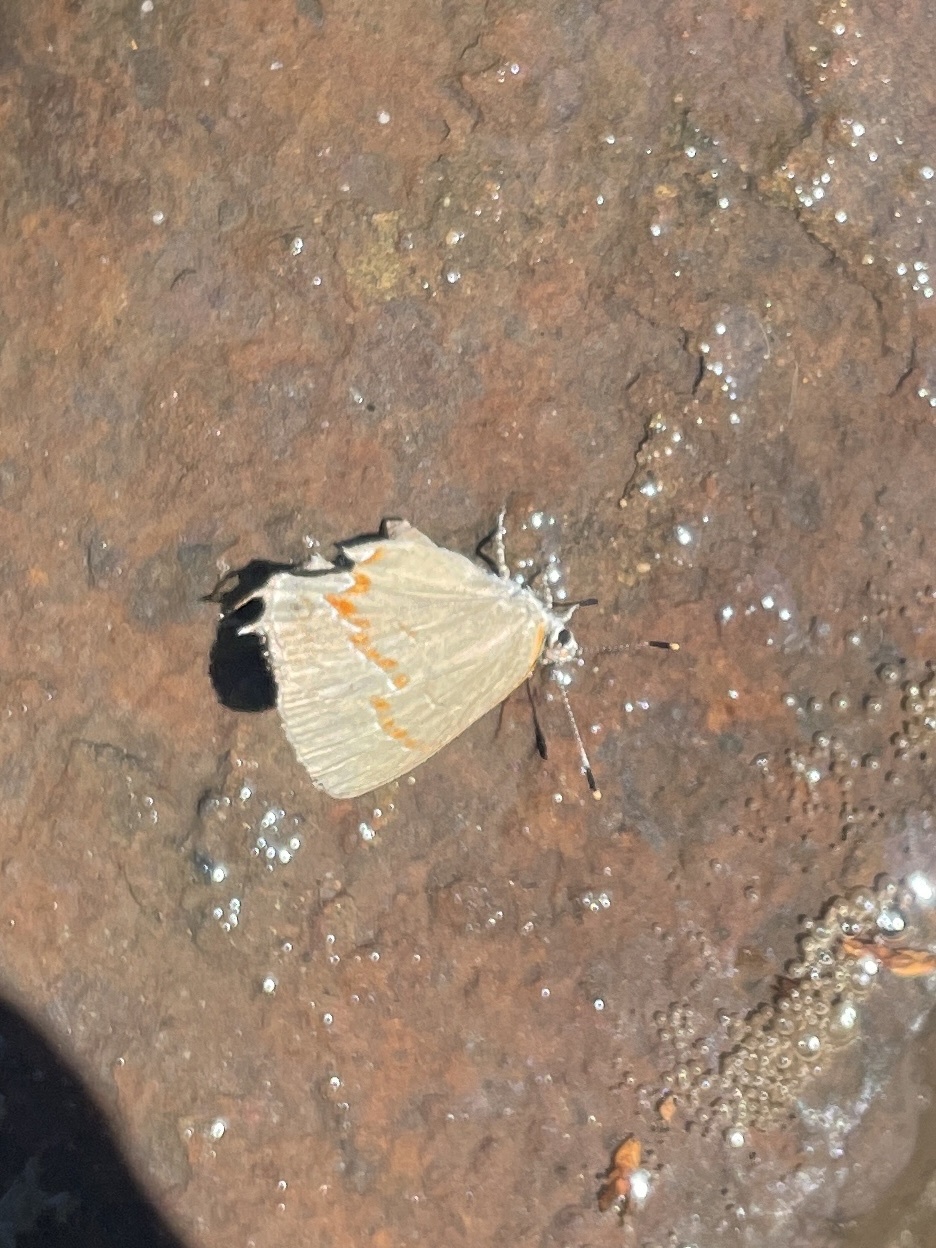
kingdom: Animalia
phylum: Arthropoda
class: Insecta
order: Lepidoptera
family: Lycaenidae
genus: Calycopis
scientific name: Calycopis cecrops
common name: Red-banded hairstreak
